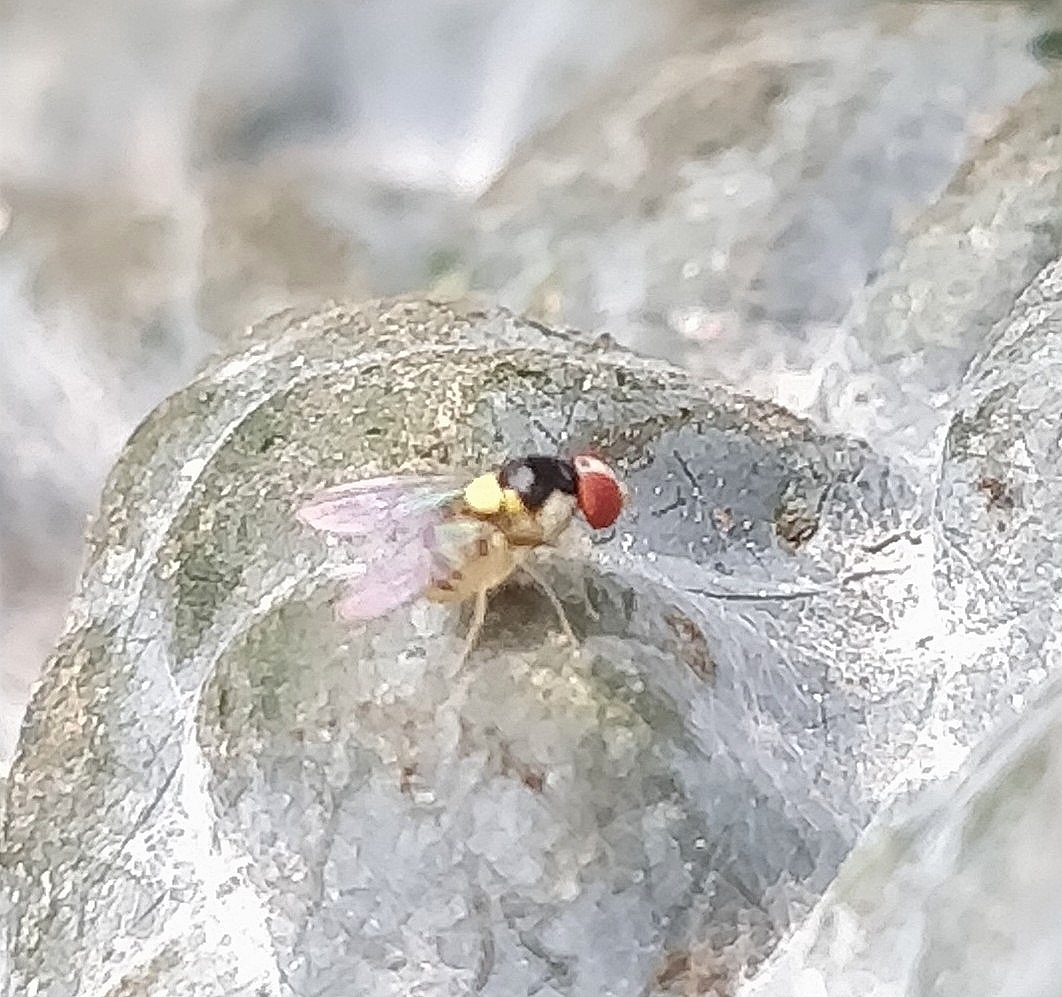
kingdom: Animalia
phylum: Arthropoda
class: Insecta
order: Diptera
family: Drosophilidae
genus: Acletoxenus
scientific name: Acletoxenus formosus
